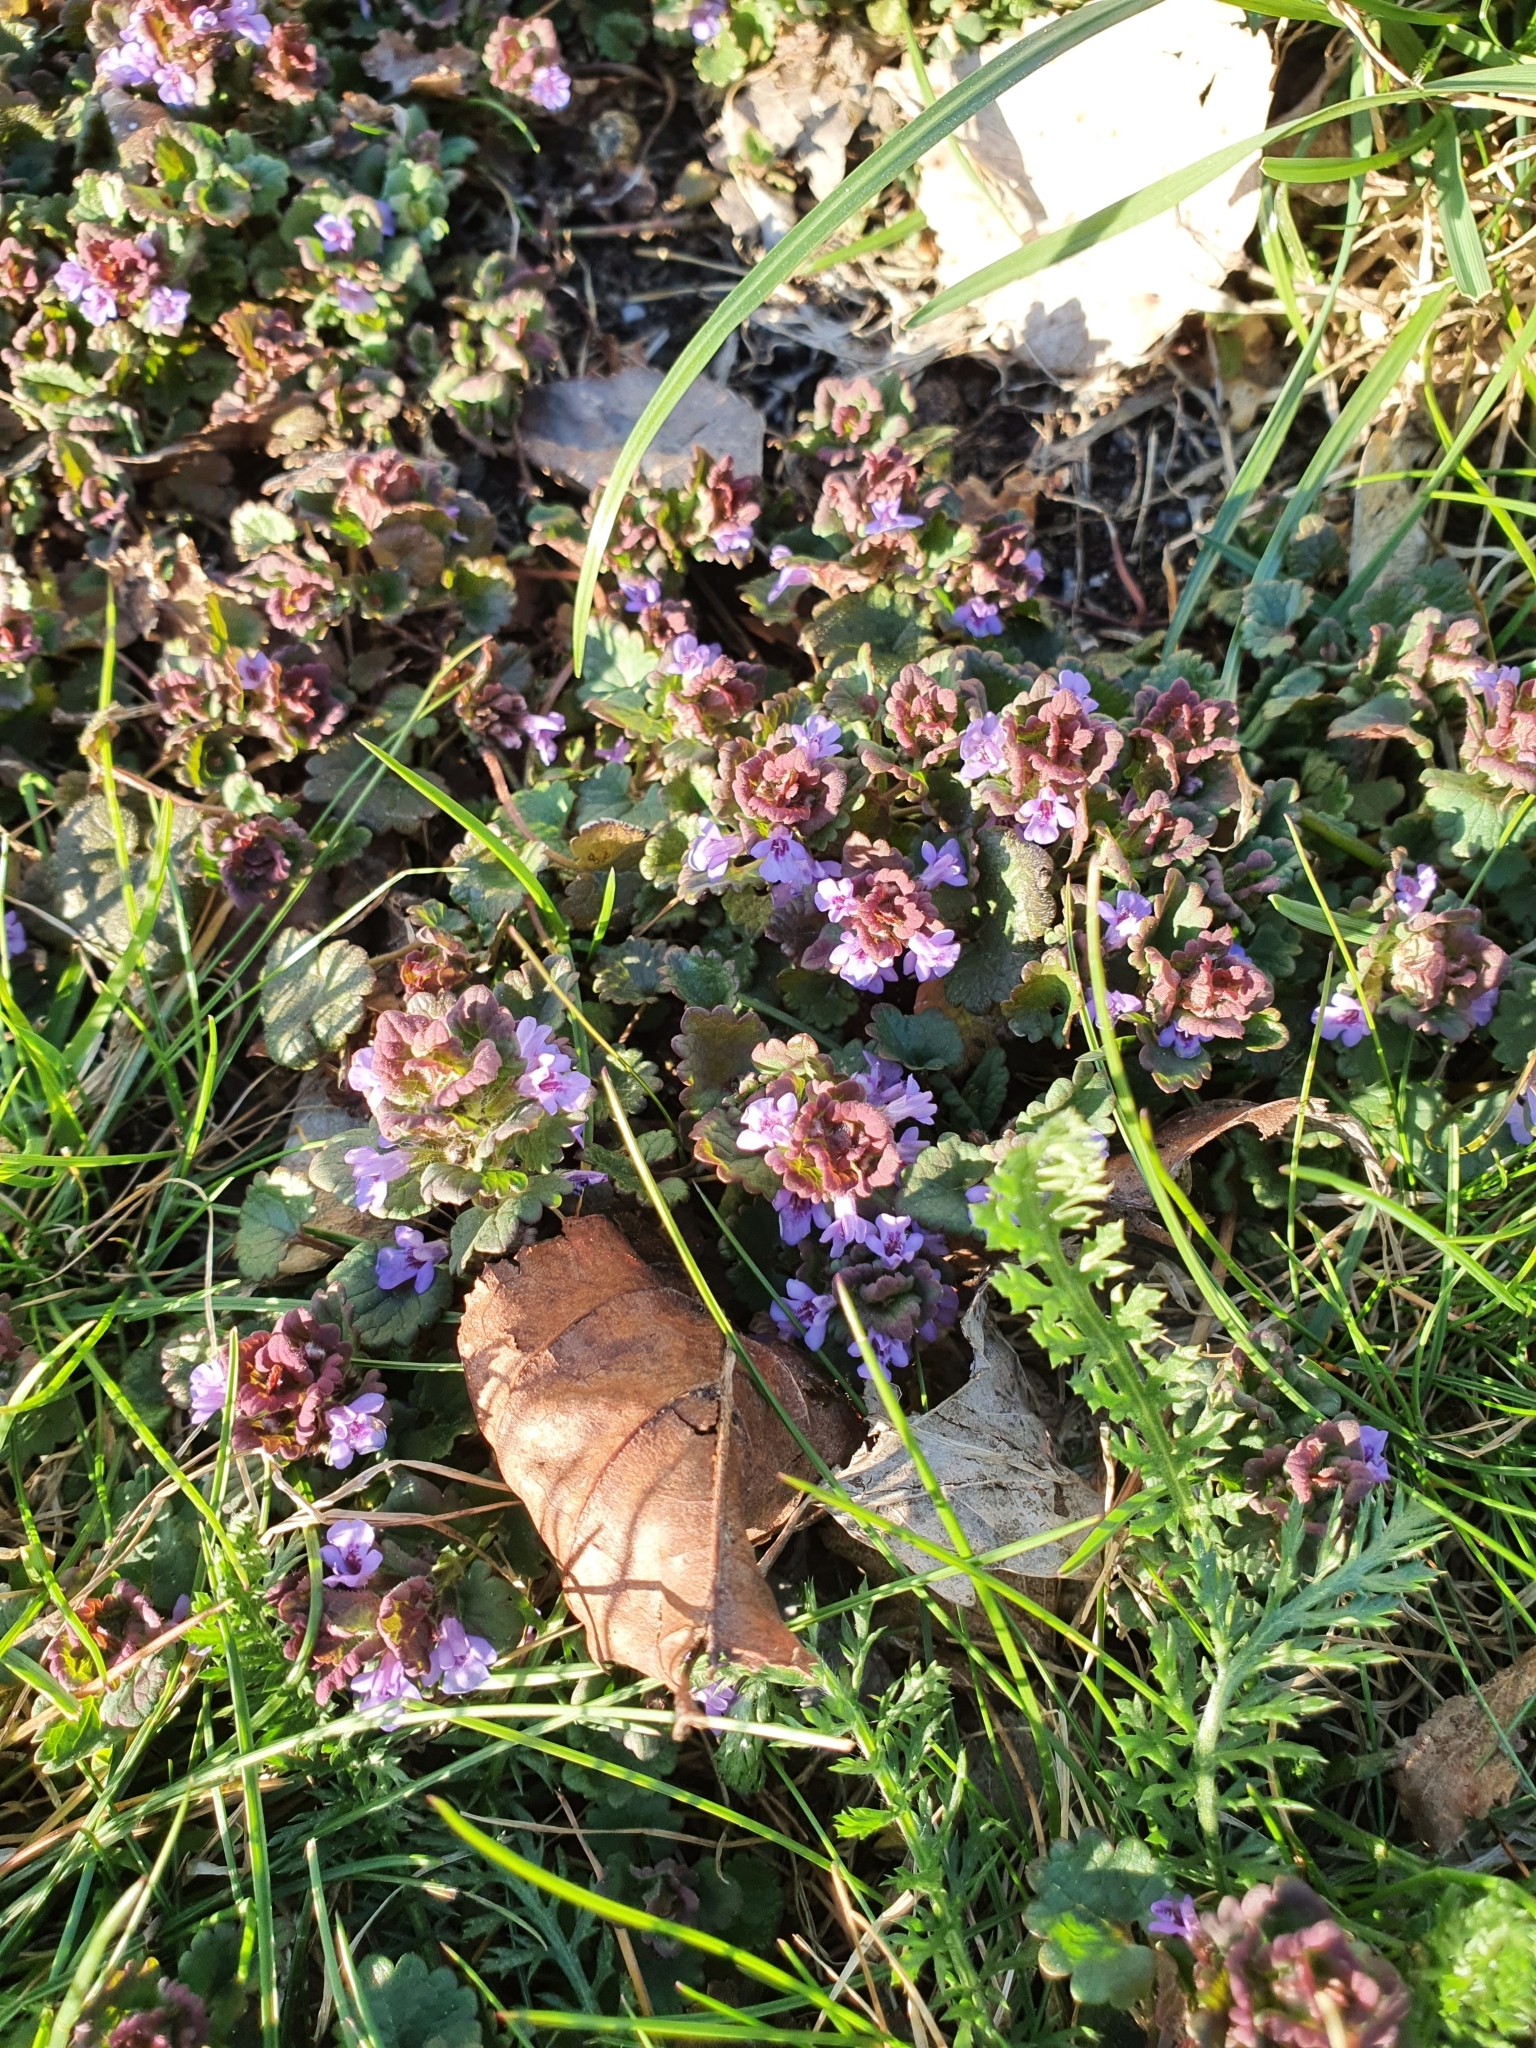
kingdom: Plantae
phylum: Tracheophyta
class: Magnoliopsida
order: Lamiales
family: Lamiaceae
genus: Glechoma
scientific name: Glechoma hederacea
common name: Ground ivy
